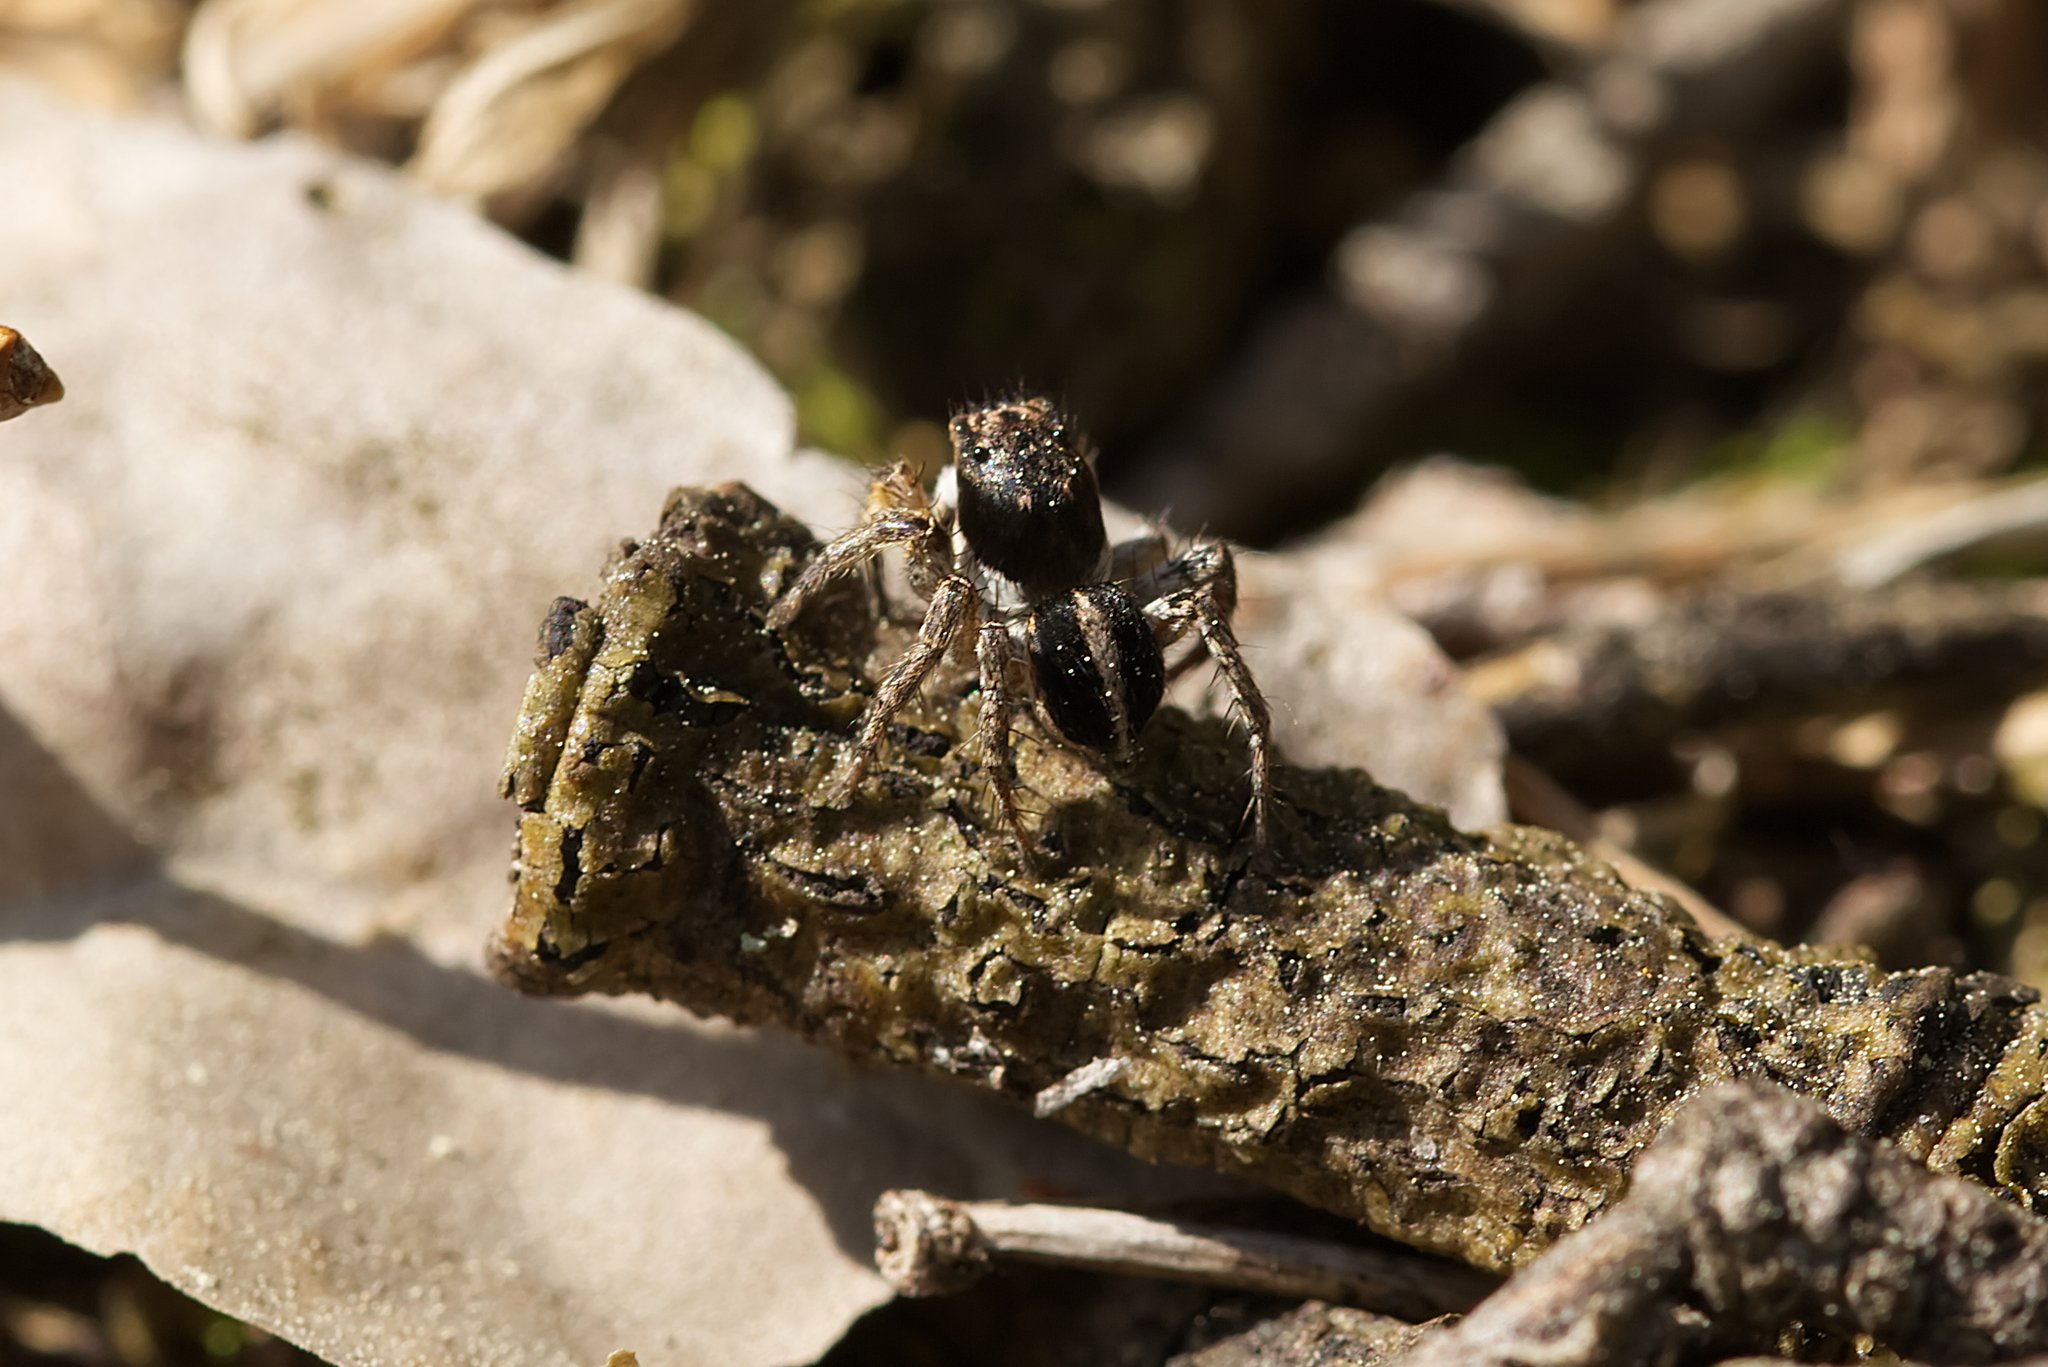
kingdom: Animalia
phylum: Arthropoda
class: Arachnida
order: Araneae
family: Salticidae
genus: Aelurillus
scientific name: Aelurillus v-insignitus
